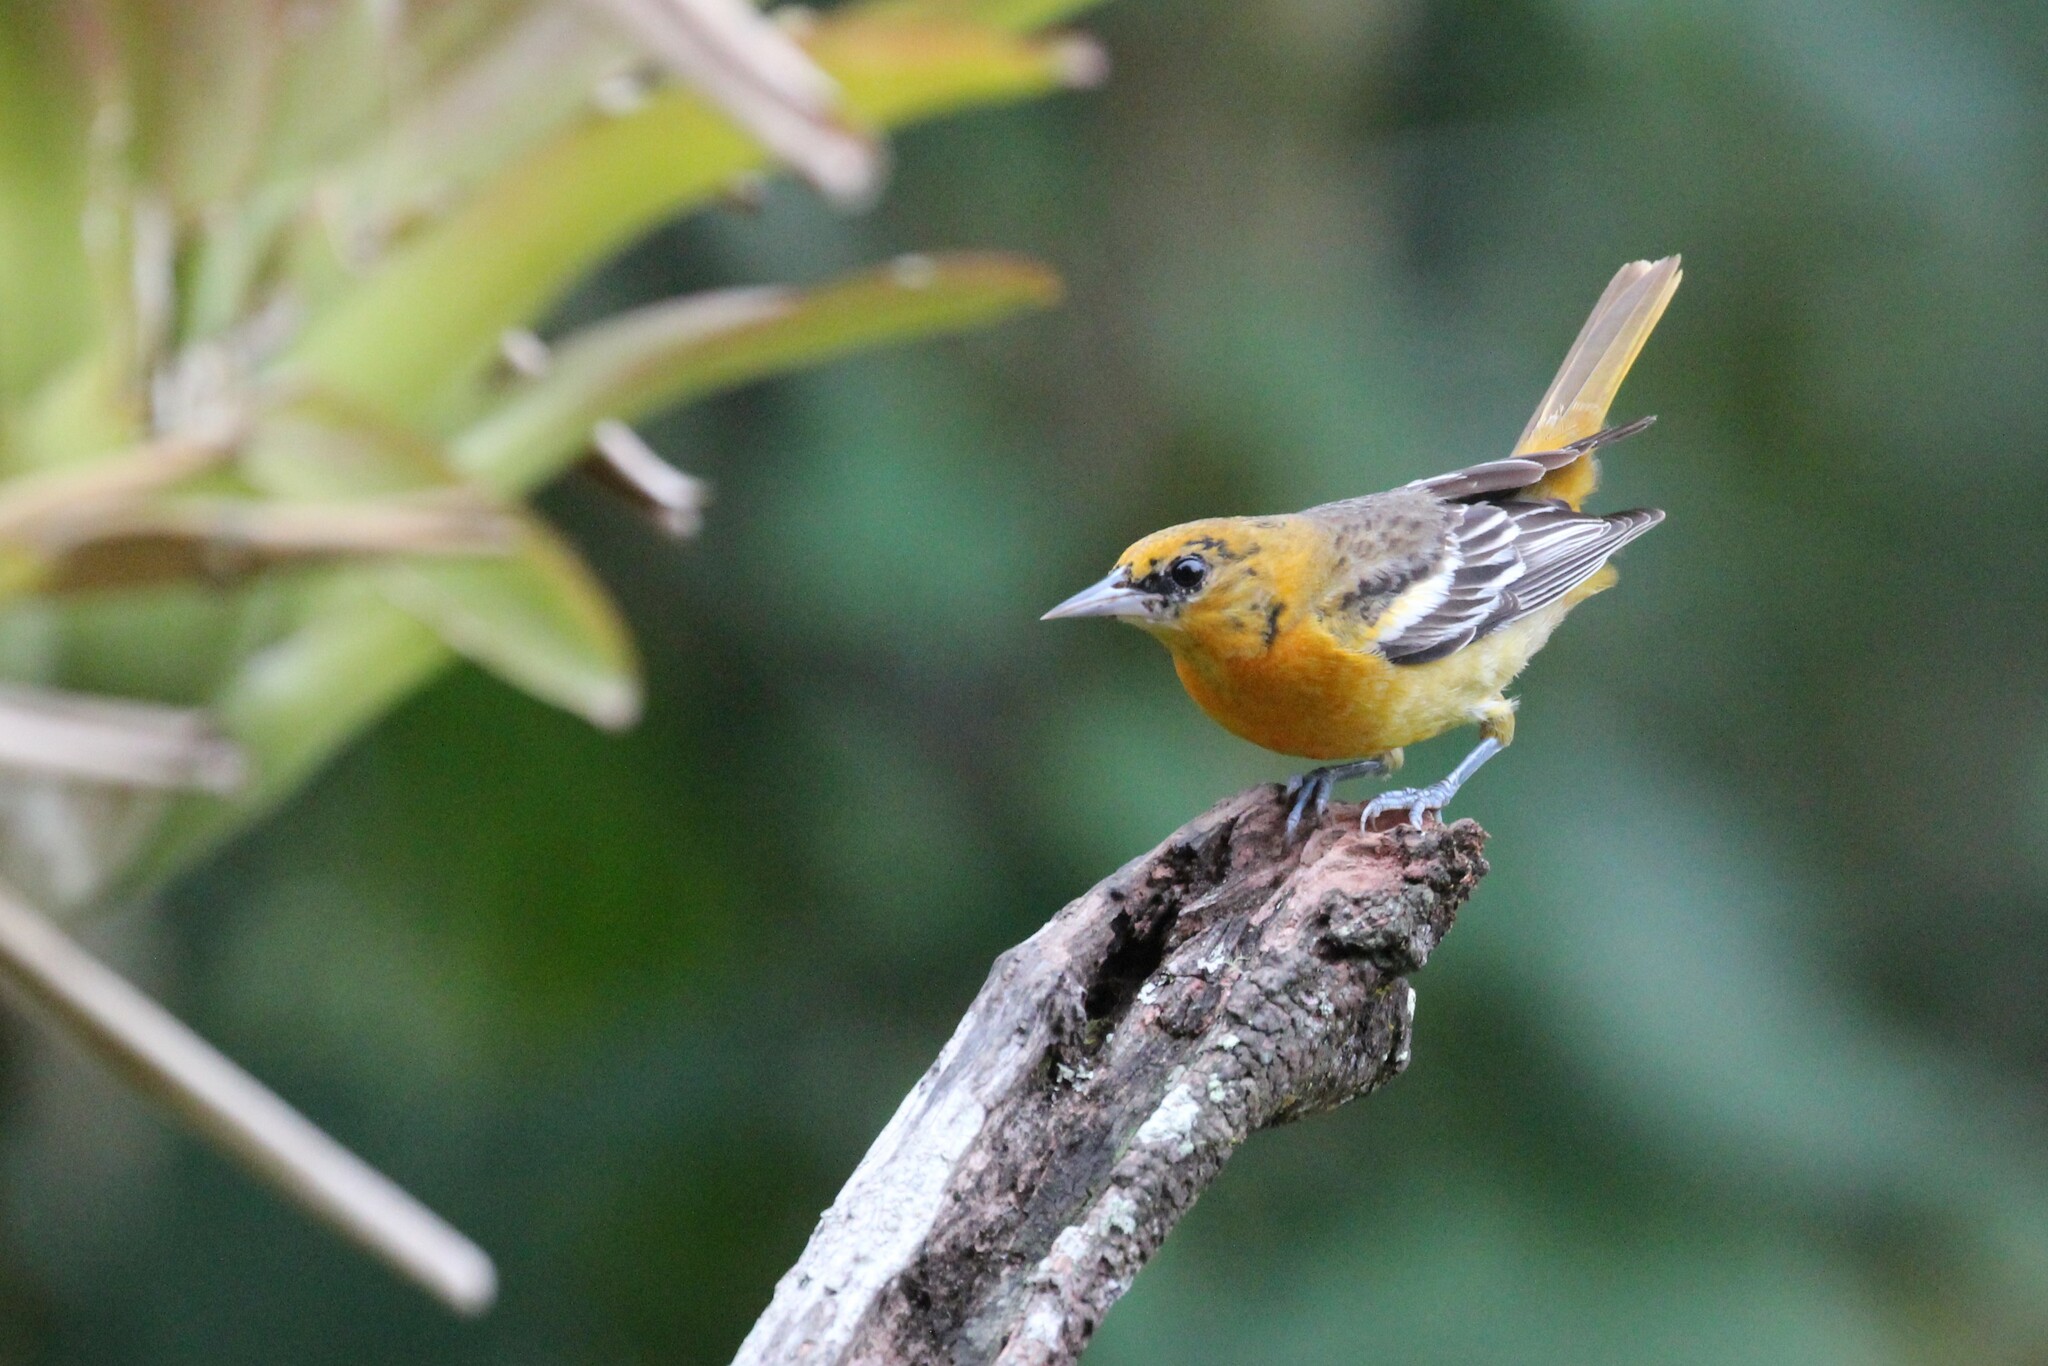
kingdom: Animalia
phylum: Chordata
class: Aves
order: Passeriformes
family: Icteridae
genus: Icterus
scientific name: Icterus galbula
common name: Baltimore oriole
